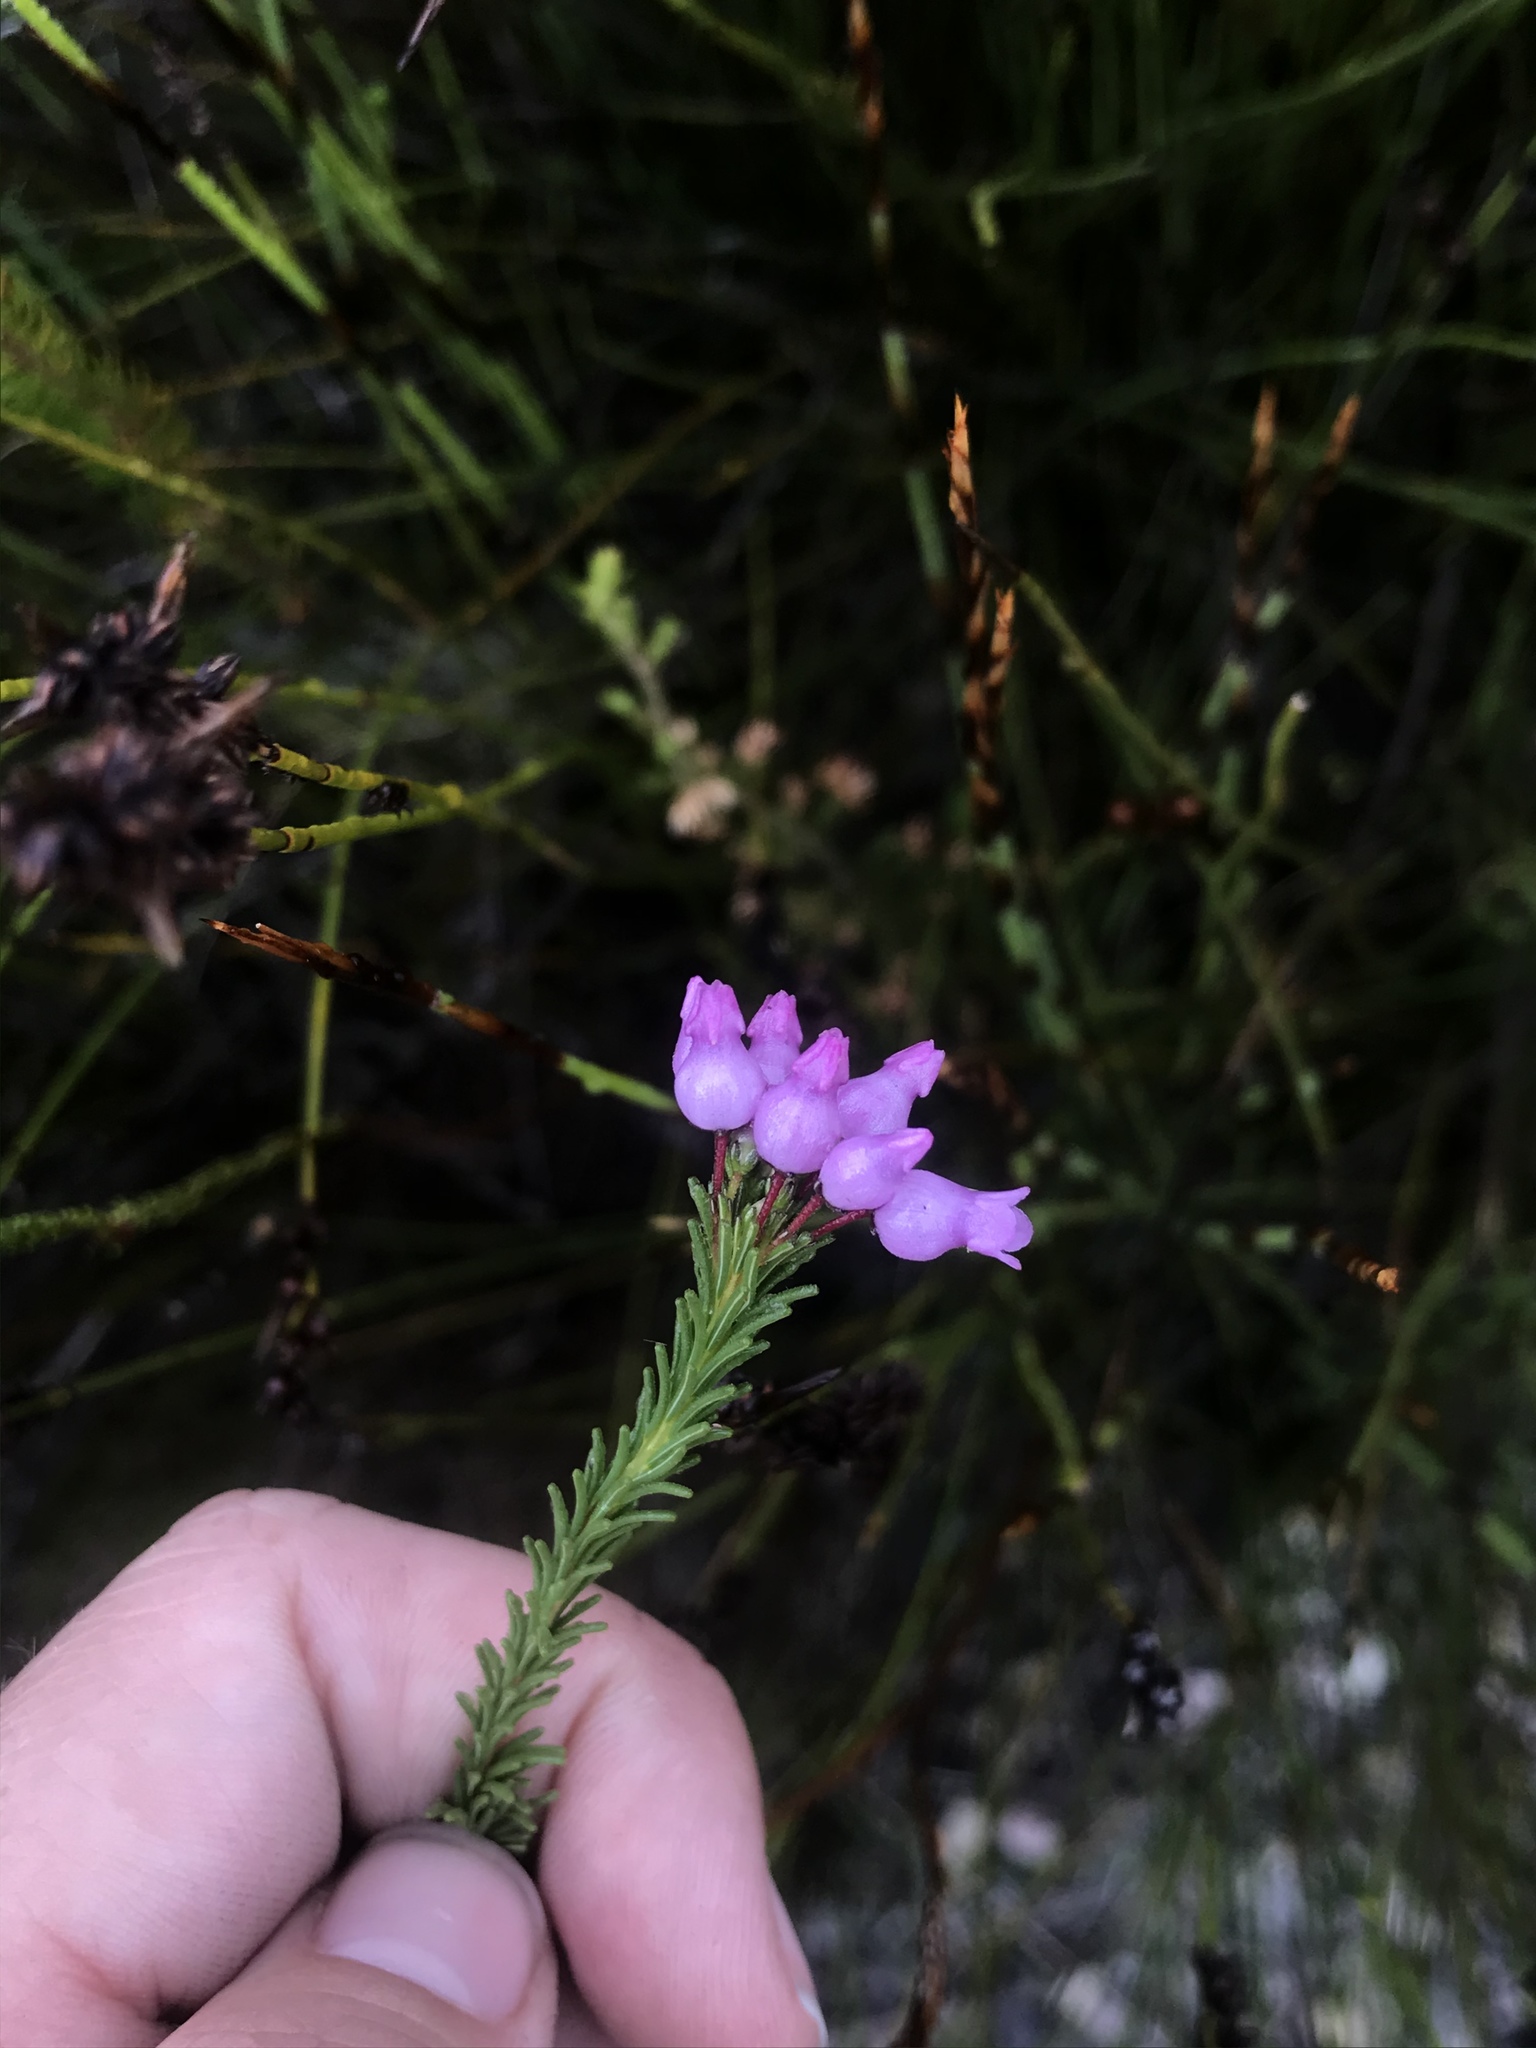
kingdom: Plantae
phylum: Tracheophyta
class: Magnoliopsida
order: Ericales
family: Ericaceae
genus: Erica
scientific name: Erica obliqua
